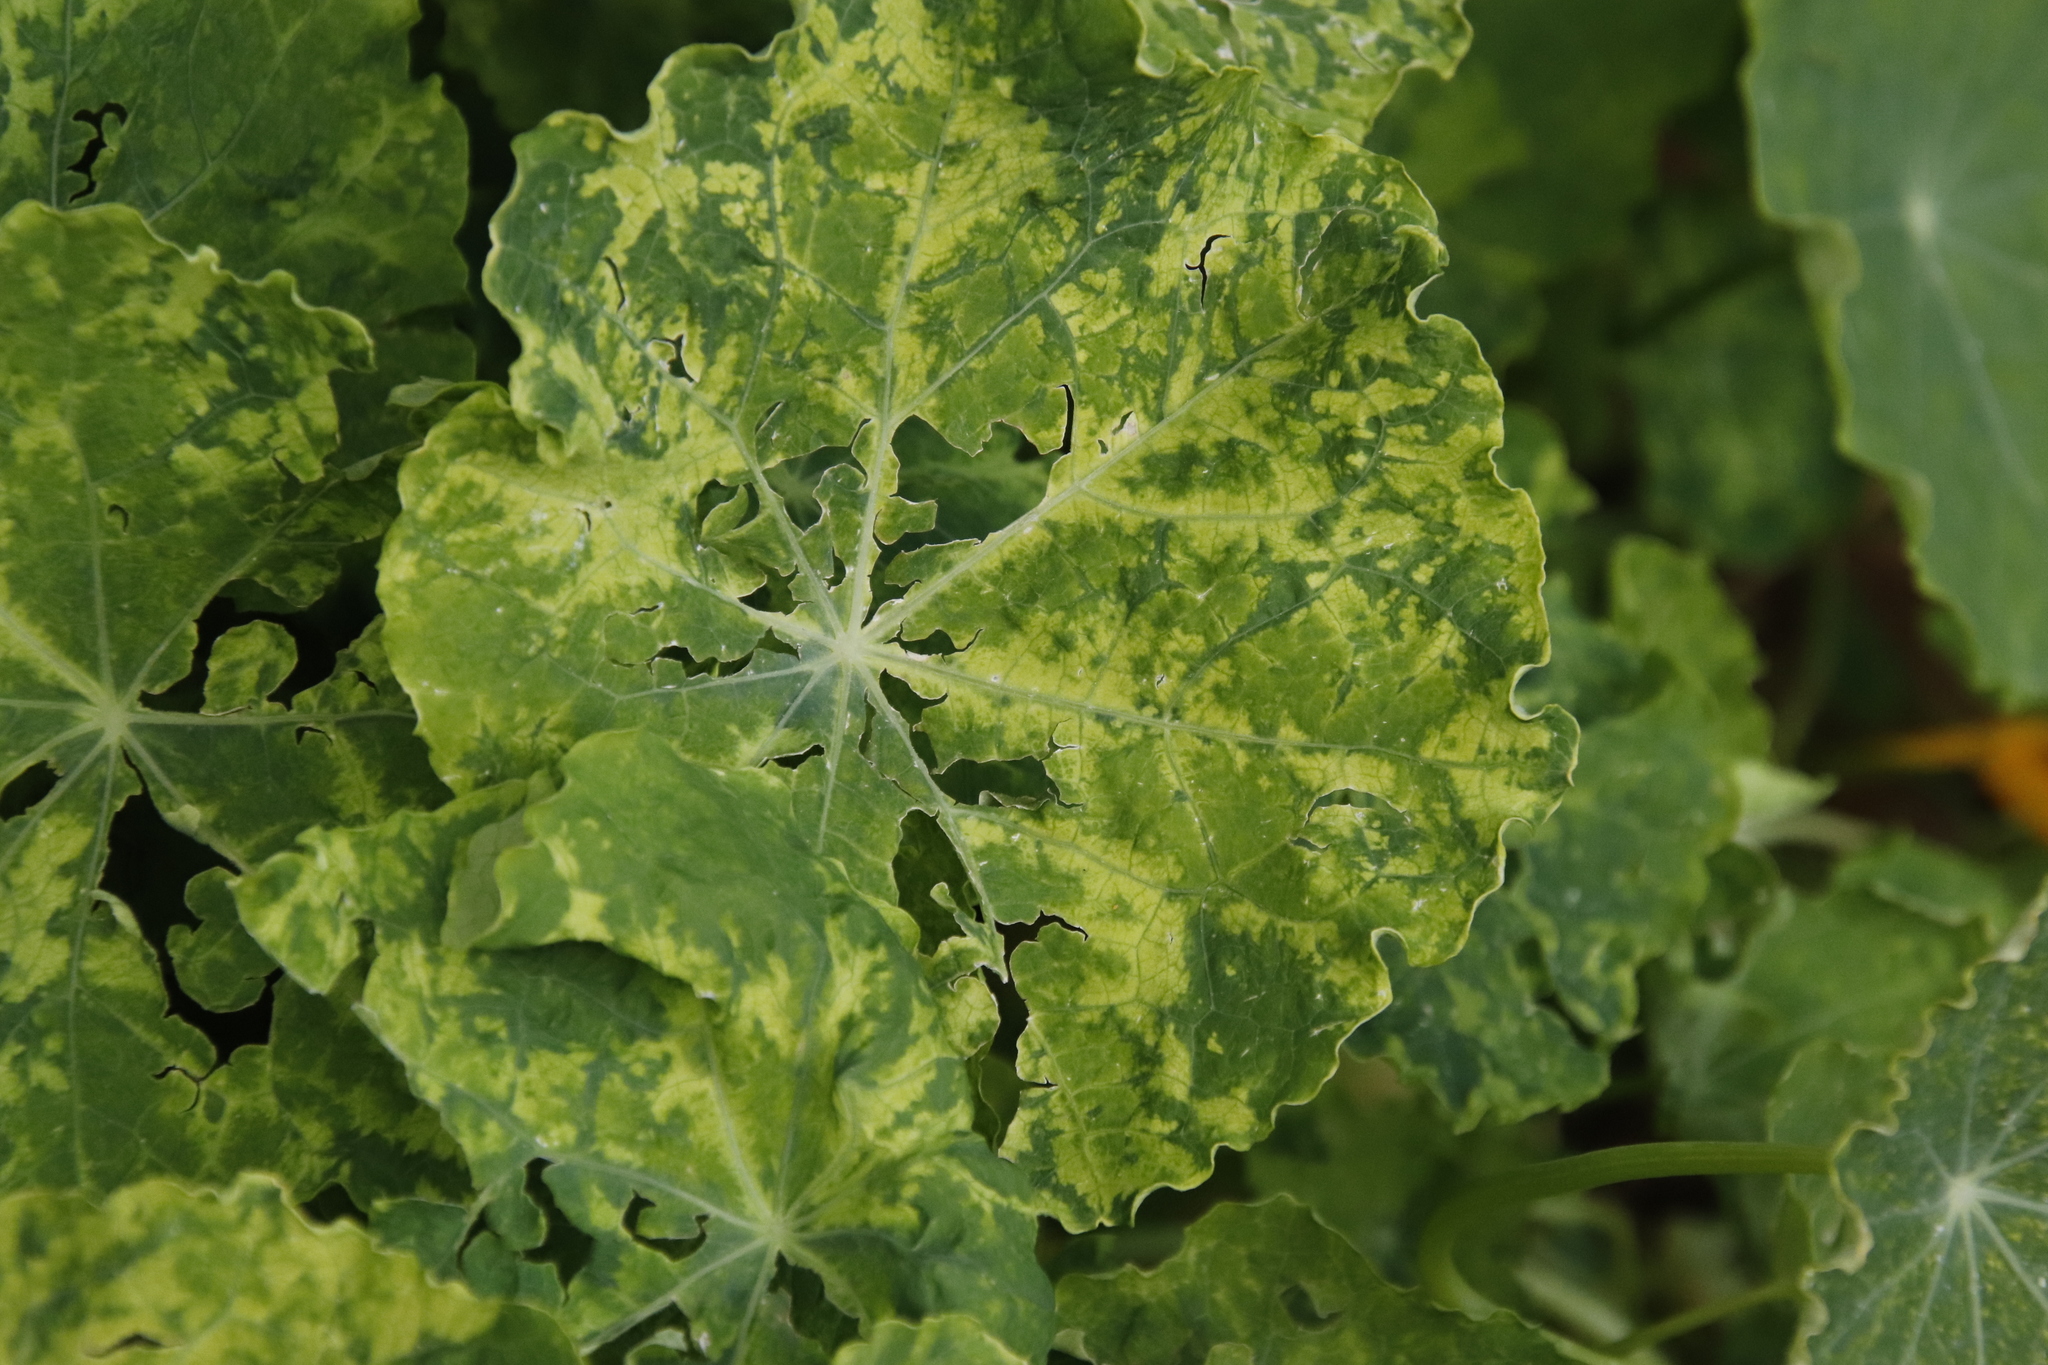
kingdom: Plantae
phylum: Tracheophyta
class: Magnoliopsida
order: Brassicales
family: Tropaeolaceae
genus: Tropaeolum
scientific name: Tropaeolum majus
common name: Nasturtium
